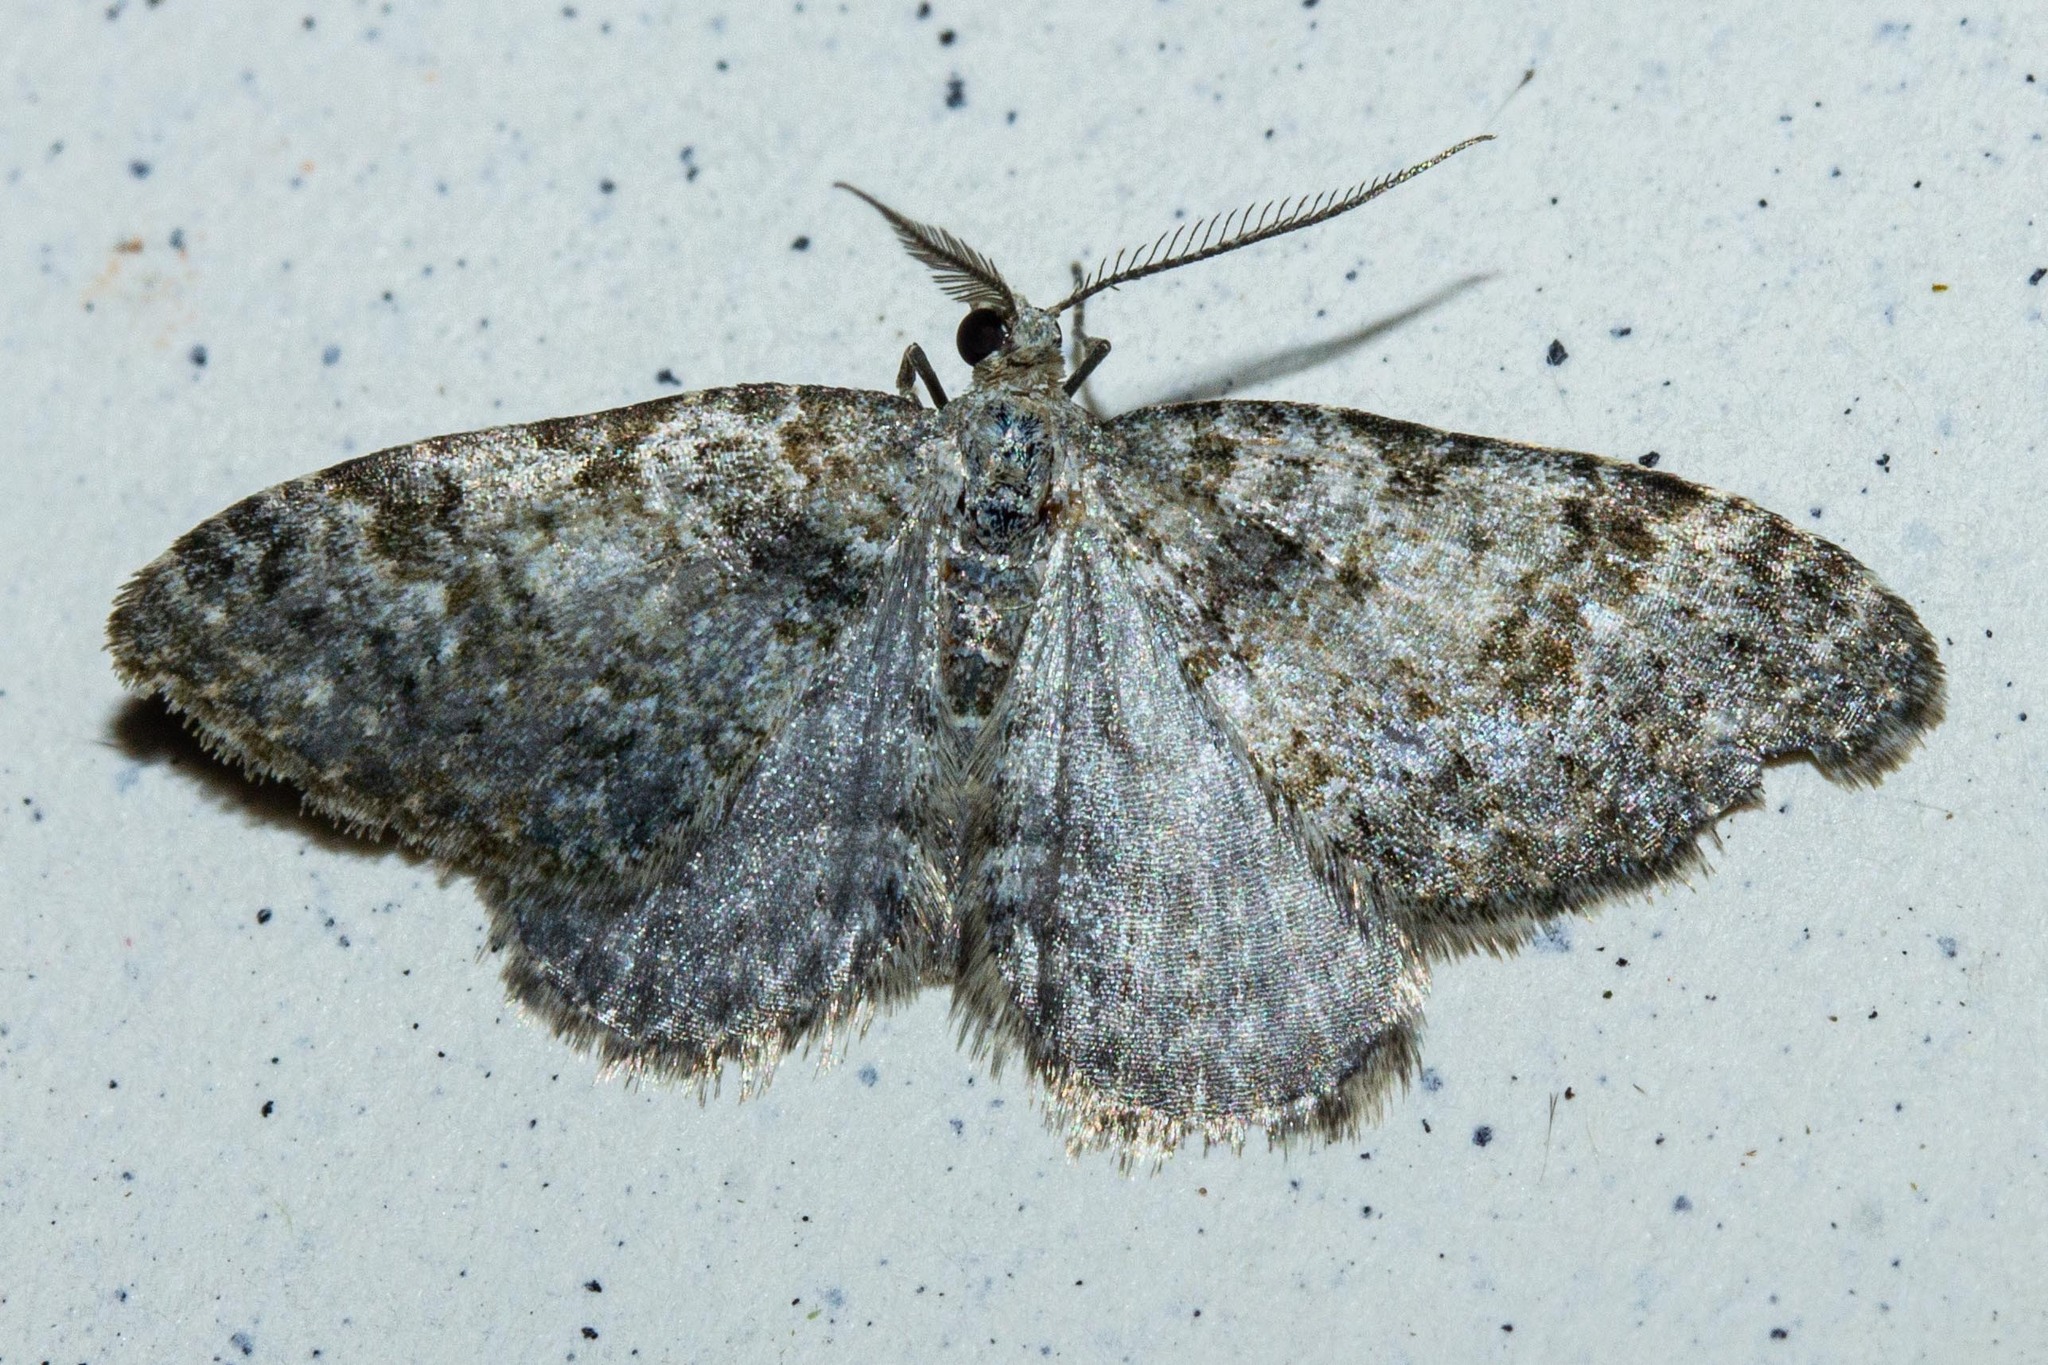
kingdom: Animalia
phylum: Arthropoda
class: Insecta
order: Lepidoptera
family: Geometridae
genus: Helastia
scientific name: Helastia plumbea
